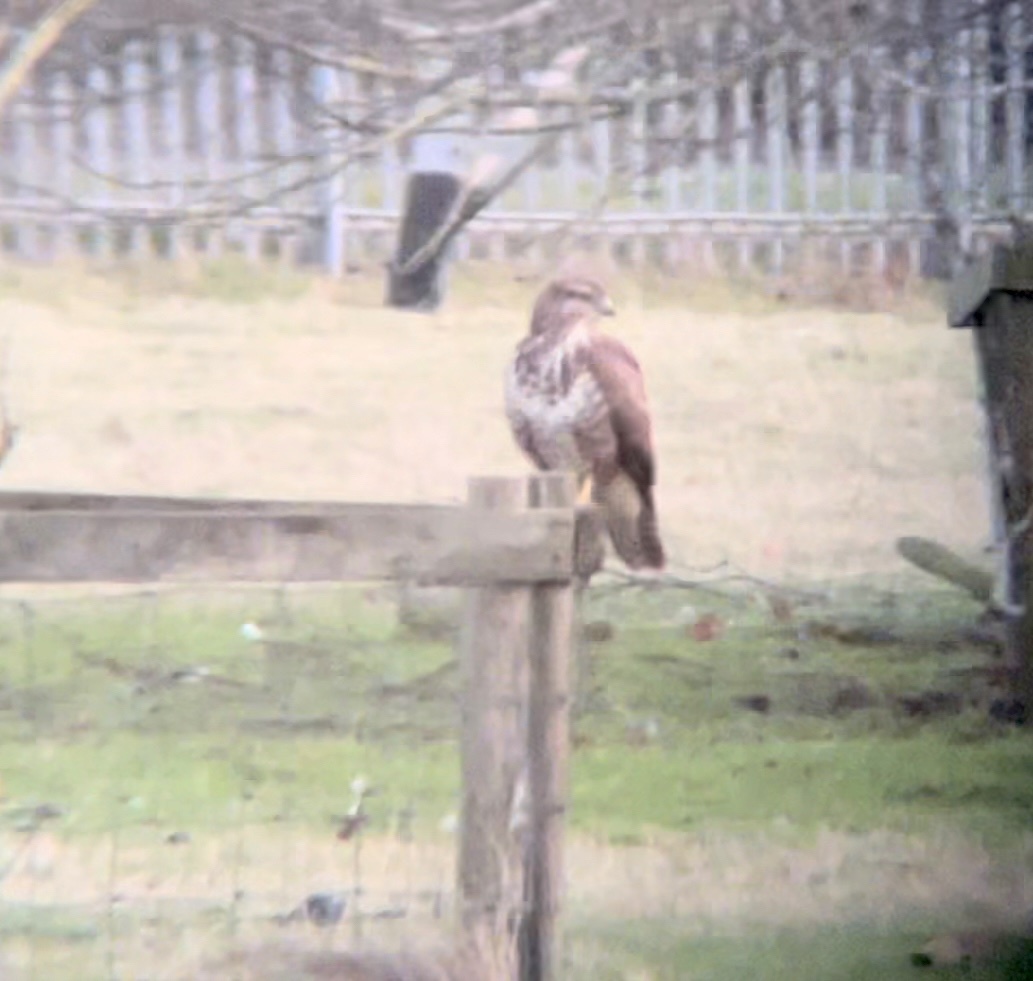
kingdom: Animalia
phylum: Chordata
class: Aves
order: Accipitriformes
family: Accipitridae
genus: Buteo
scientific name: Buteo buteo
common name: Common buzzard
